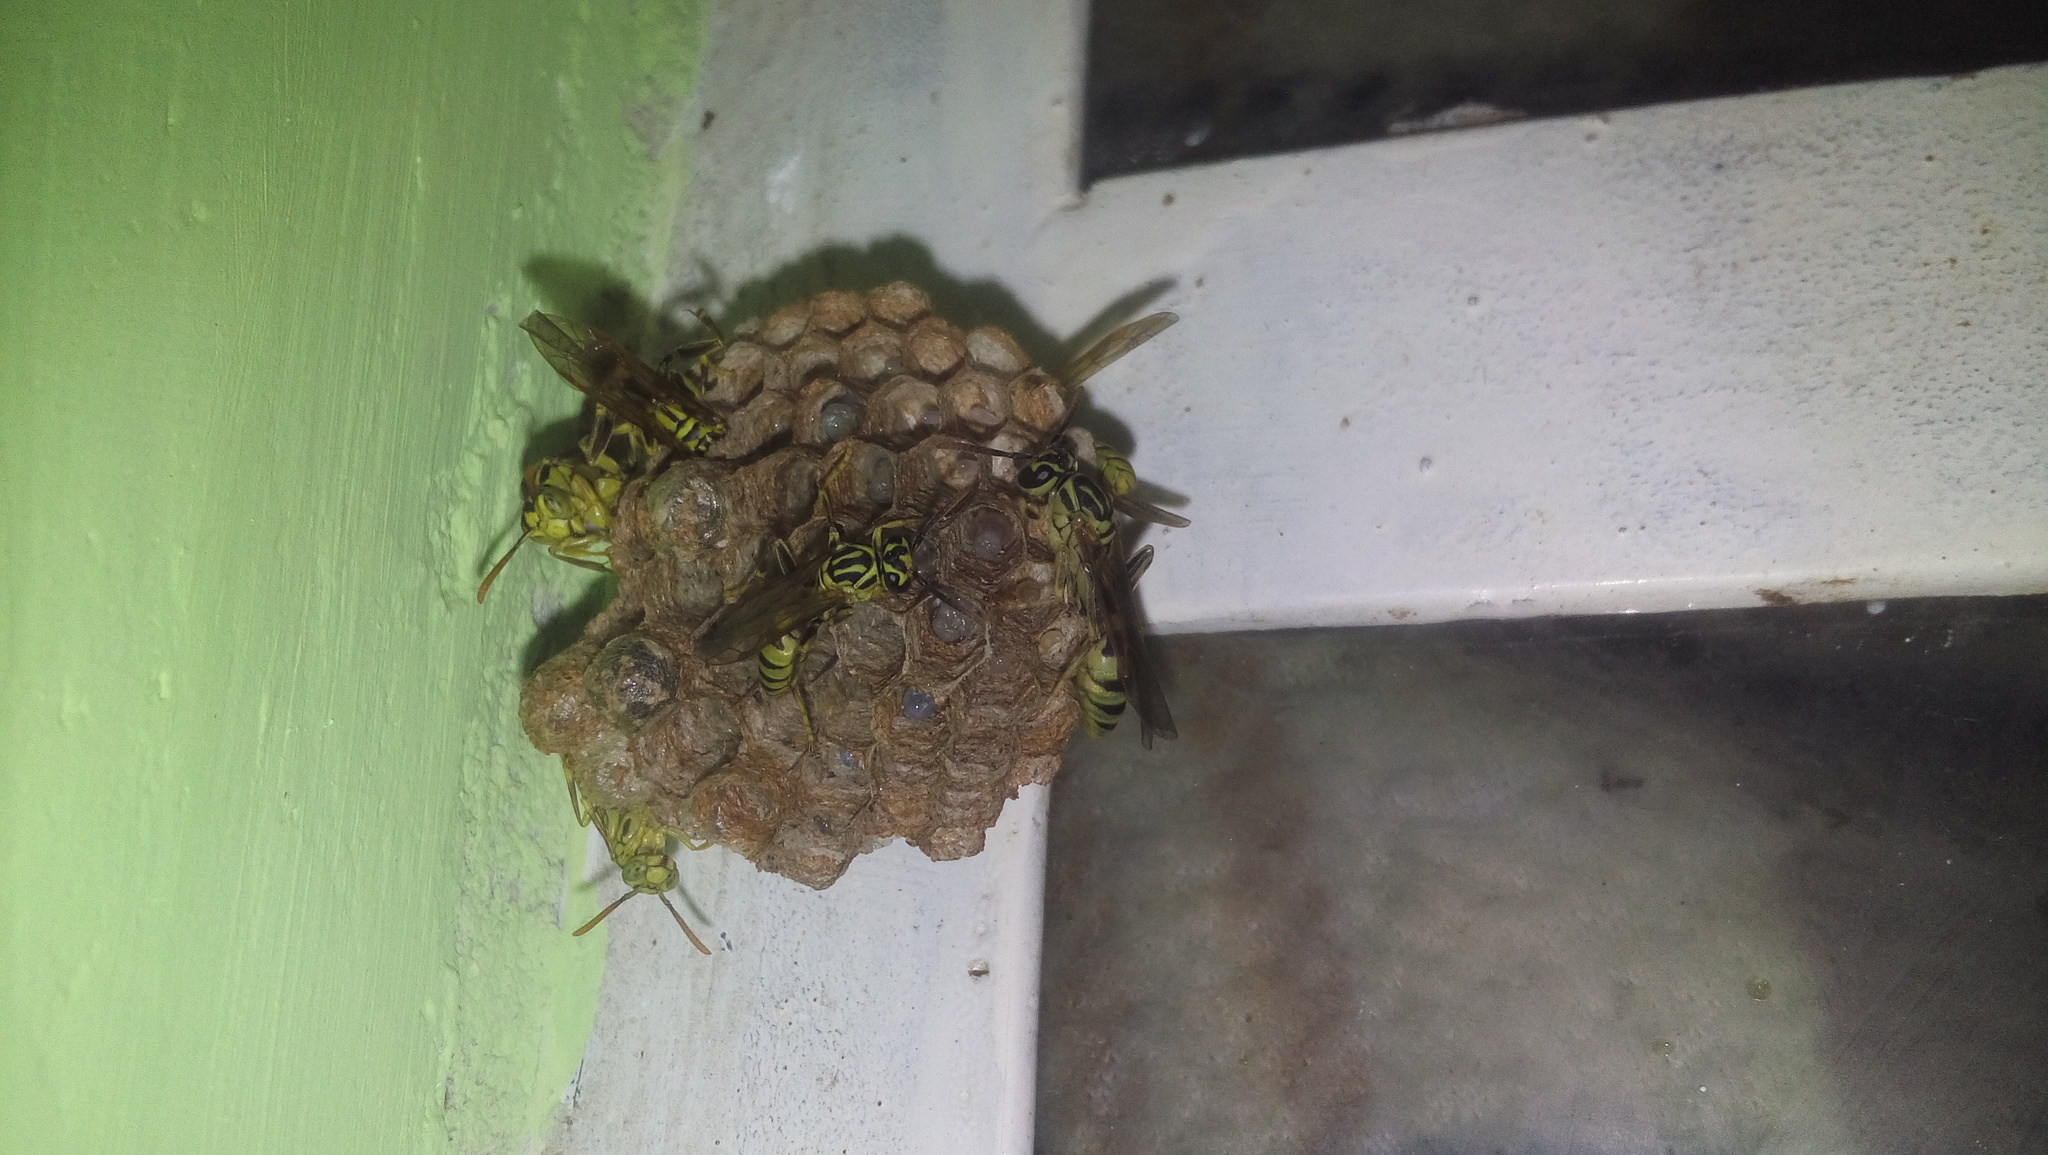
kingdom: Animalia
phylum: Arthropoda
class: Insecta
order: Hymenoptera
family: Vespidae
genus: Mischocyttarus
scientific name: Mischocyttarus basimacula
